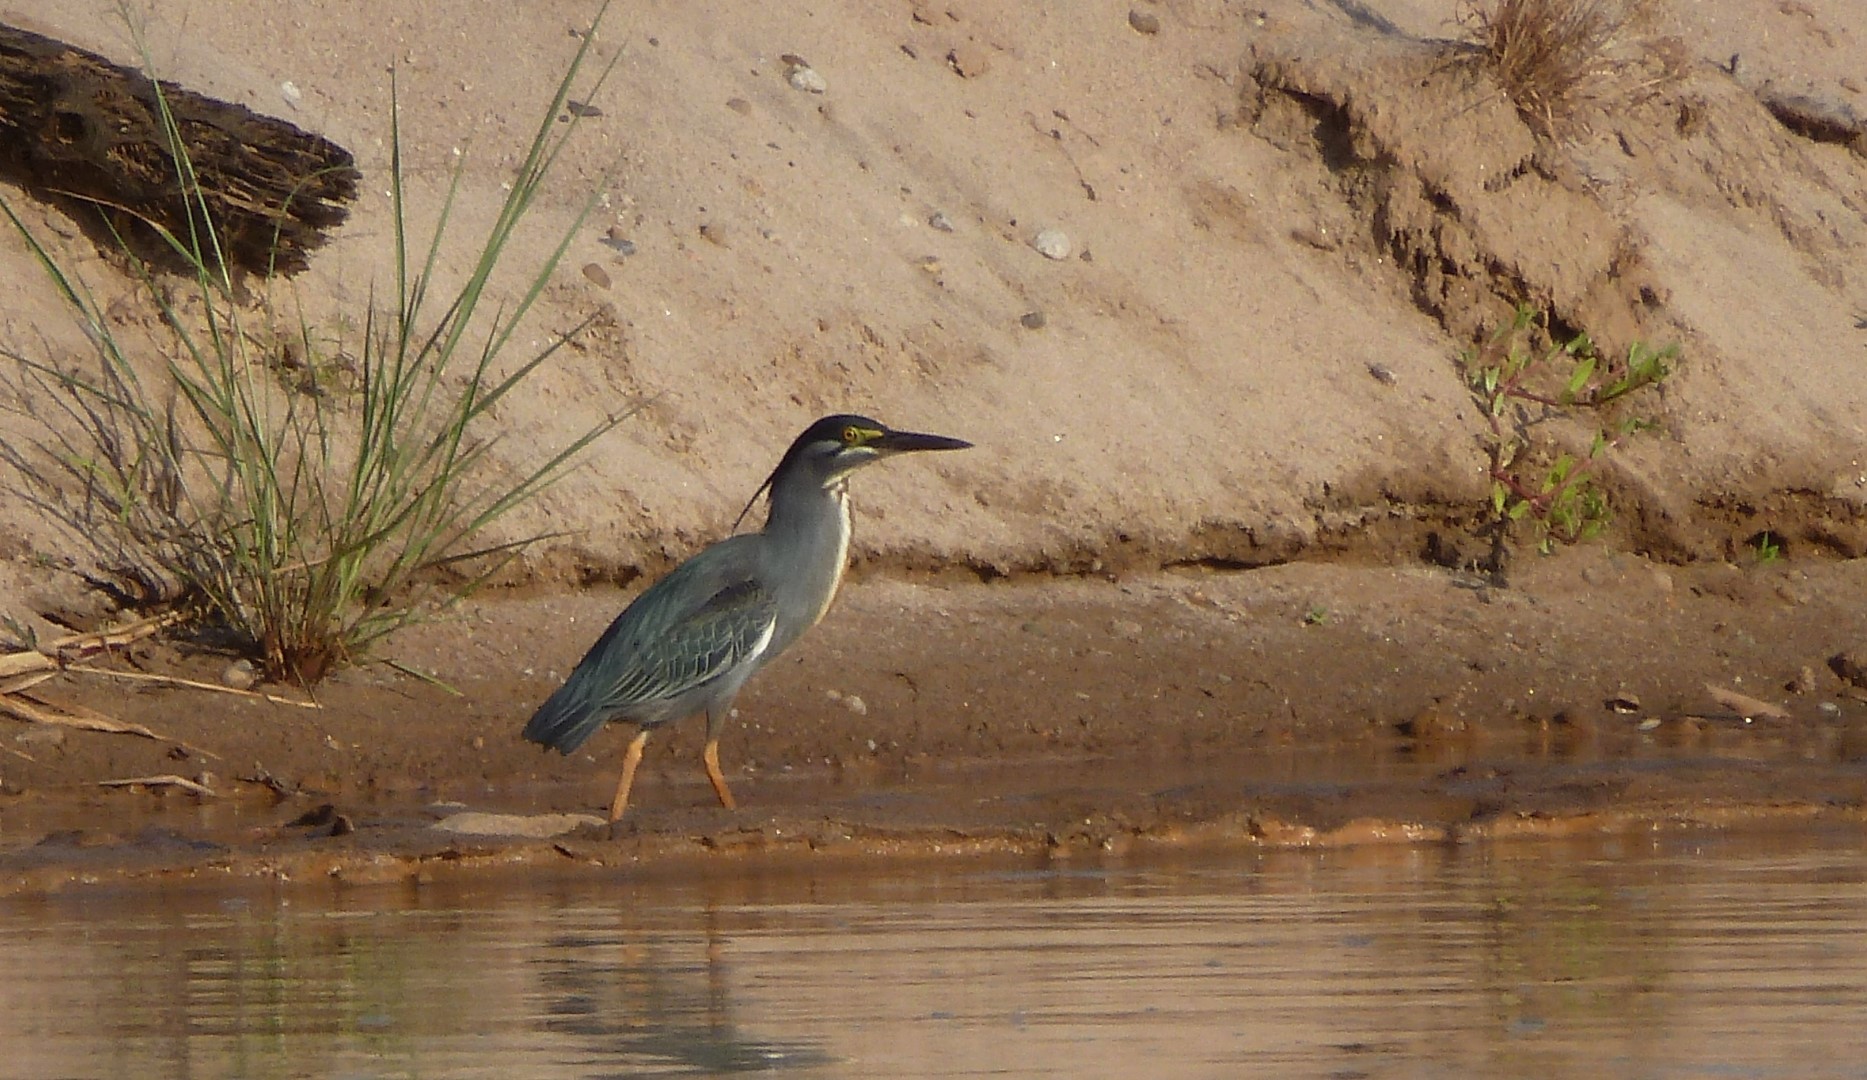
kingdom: Animalia
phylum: Chordata
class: Aves
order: Pelecaniformes
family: Ardeidae
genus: Butorides
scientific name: Butorides striata
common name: Striated heron
